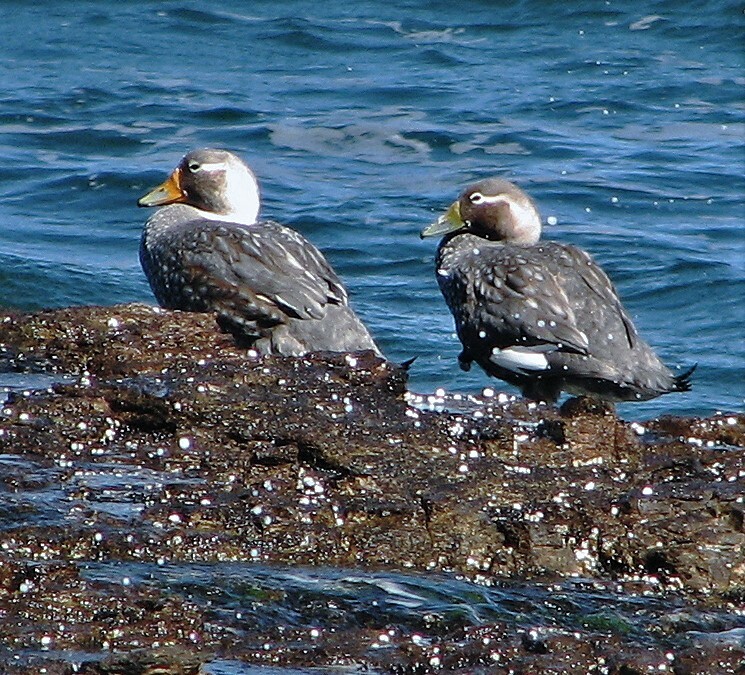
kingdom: Animalia
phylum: Chordata
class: Aves
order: Anseriformes
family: Anatidae
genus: Tachyeres
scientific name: Tachyeres leucocephalus
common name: Chubut steamer duck
